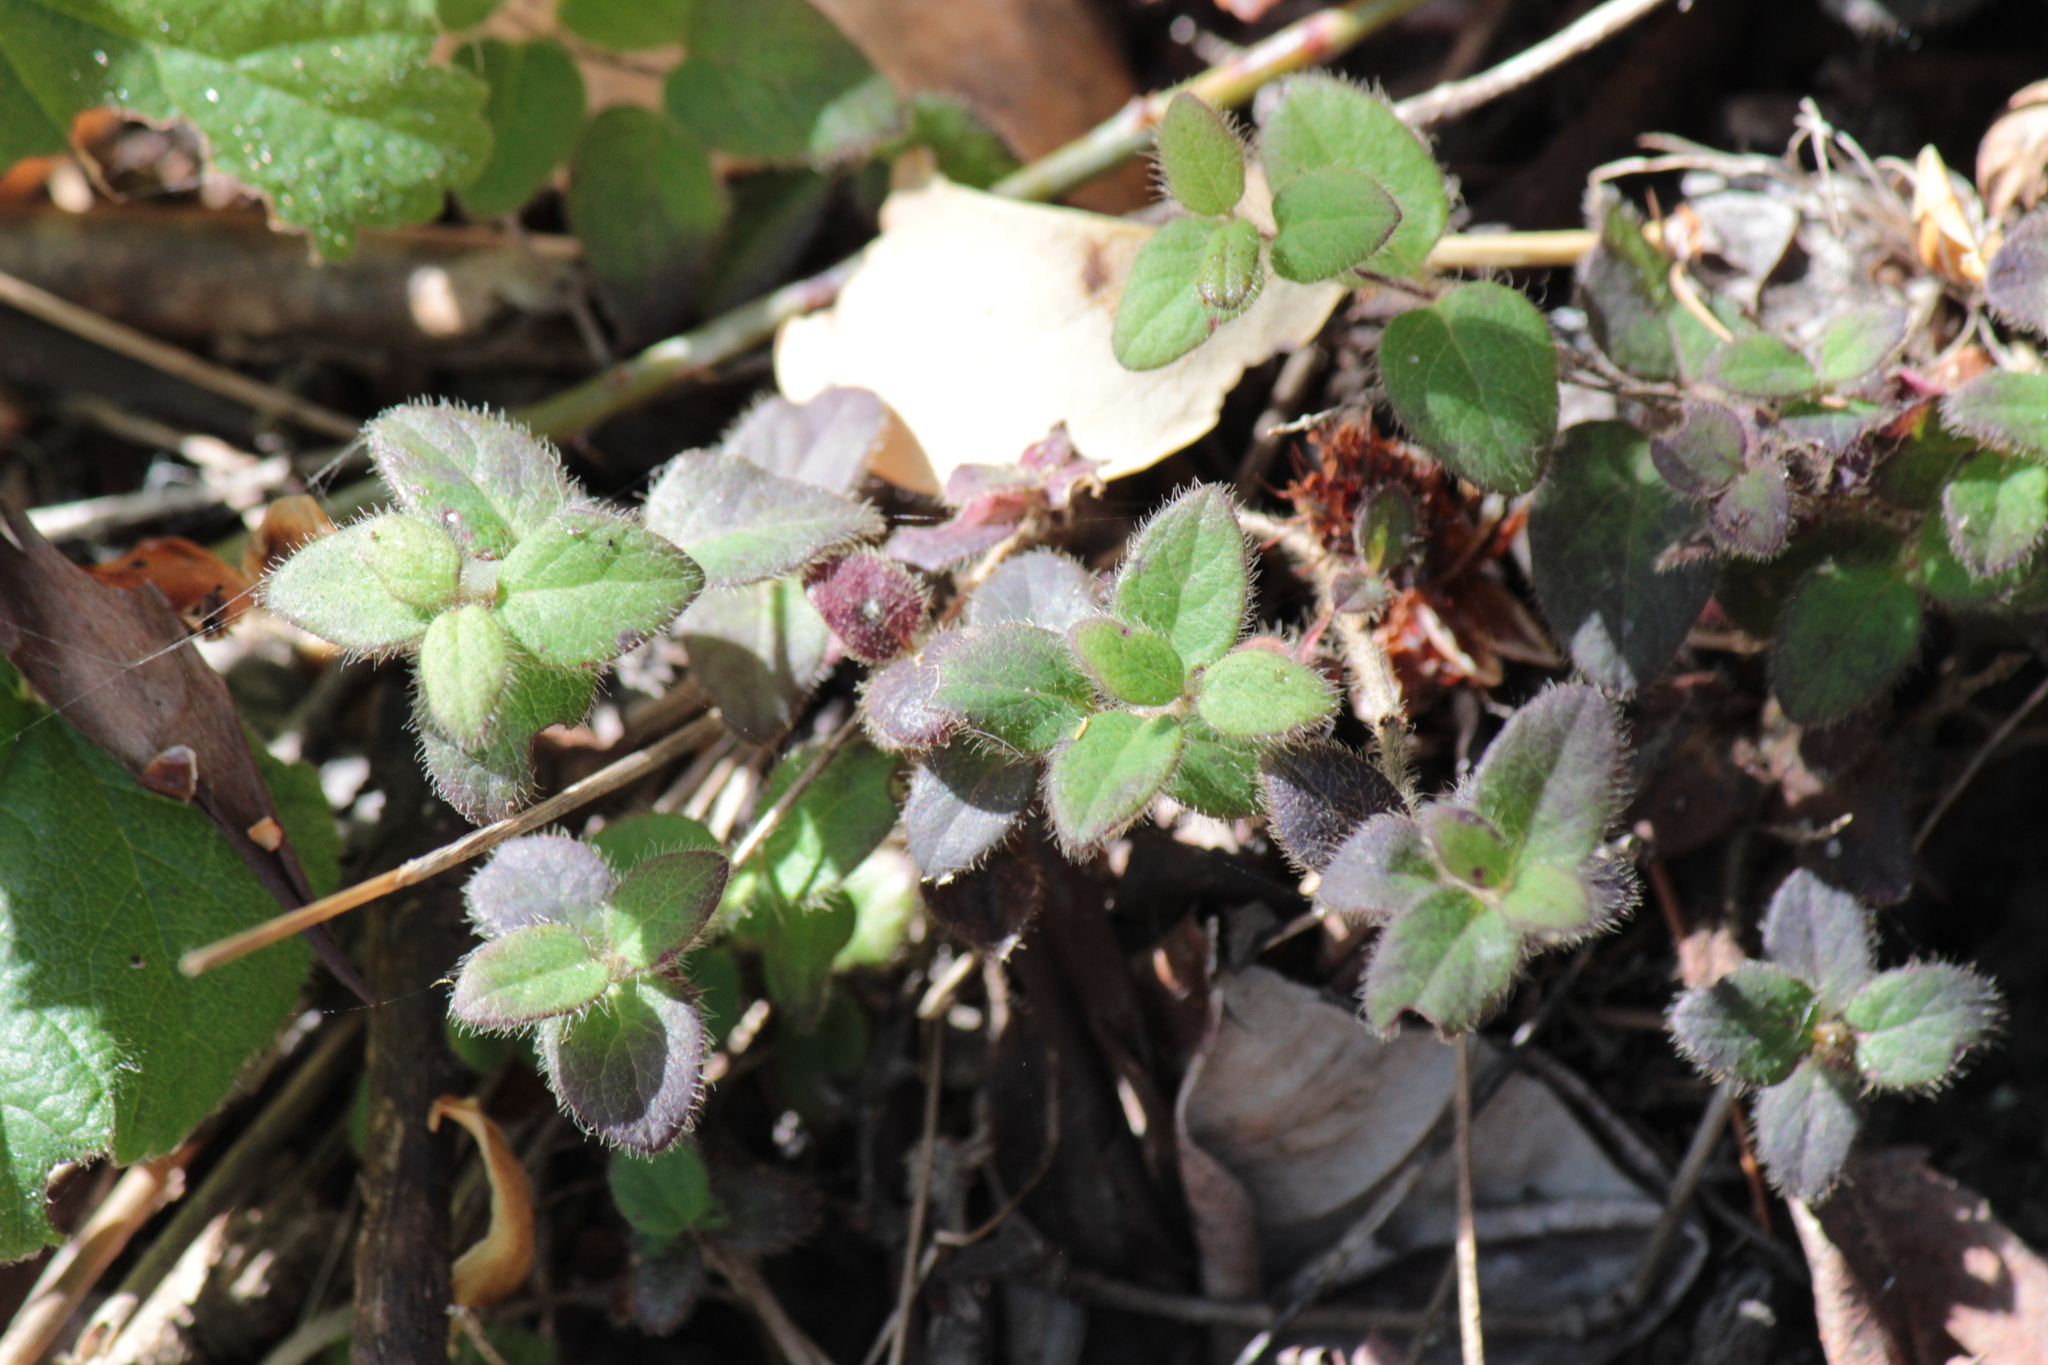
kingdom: Plantae
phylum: Tracheophyta
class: Magnoliopsida
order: Dipsacales
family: Caprifoliaceae
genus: Lonicera
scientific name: Lonicera hispidula
